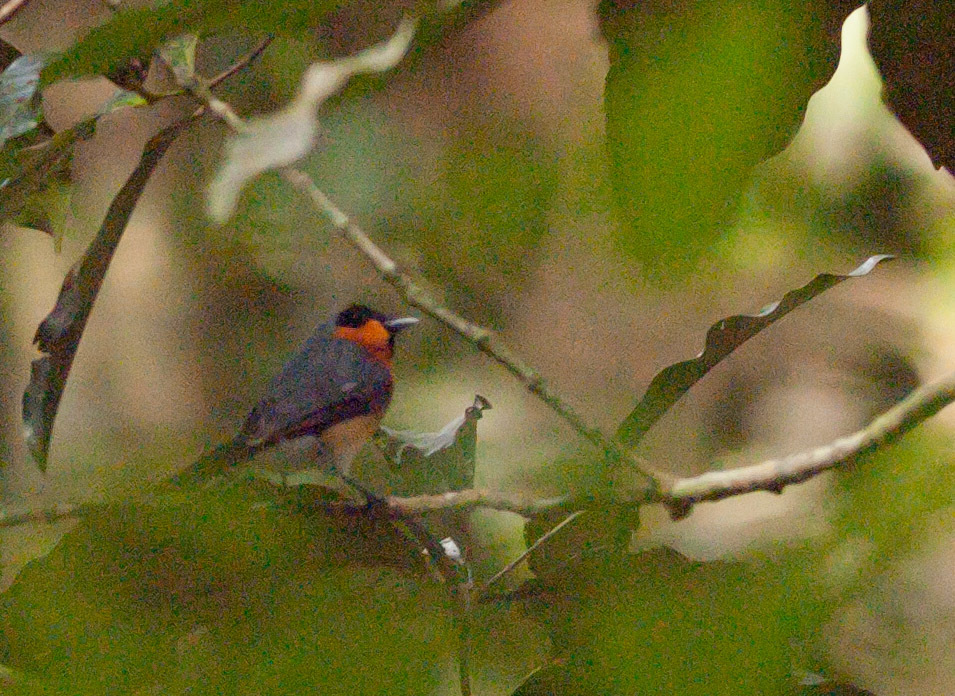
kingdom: Animalia
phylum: Chordata
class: Aves
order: Passeriformes
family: Monarchidae
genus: Symposiachrus
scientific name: Symposiachrus trivirgatus
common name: Spectacled monarch
